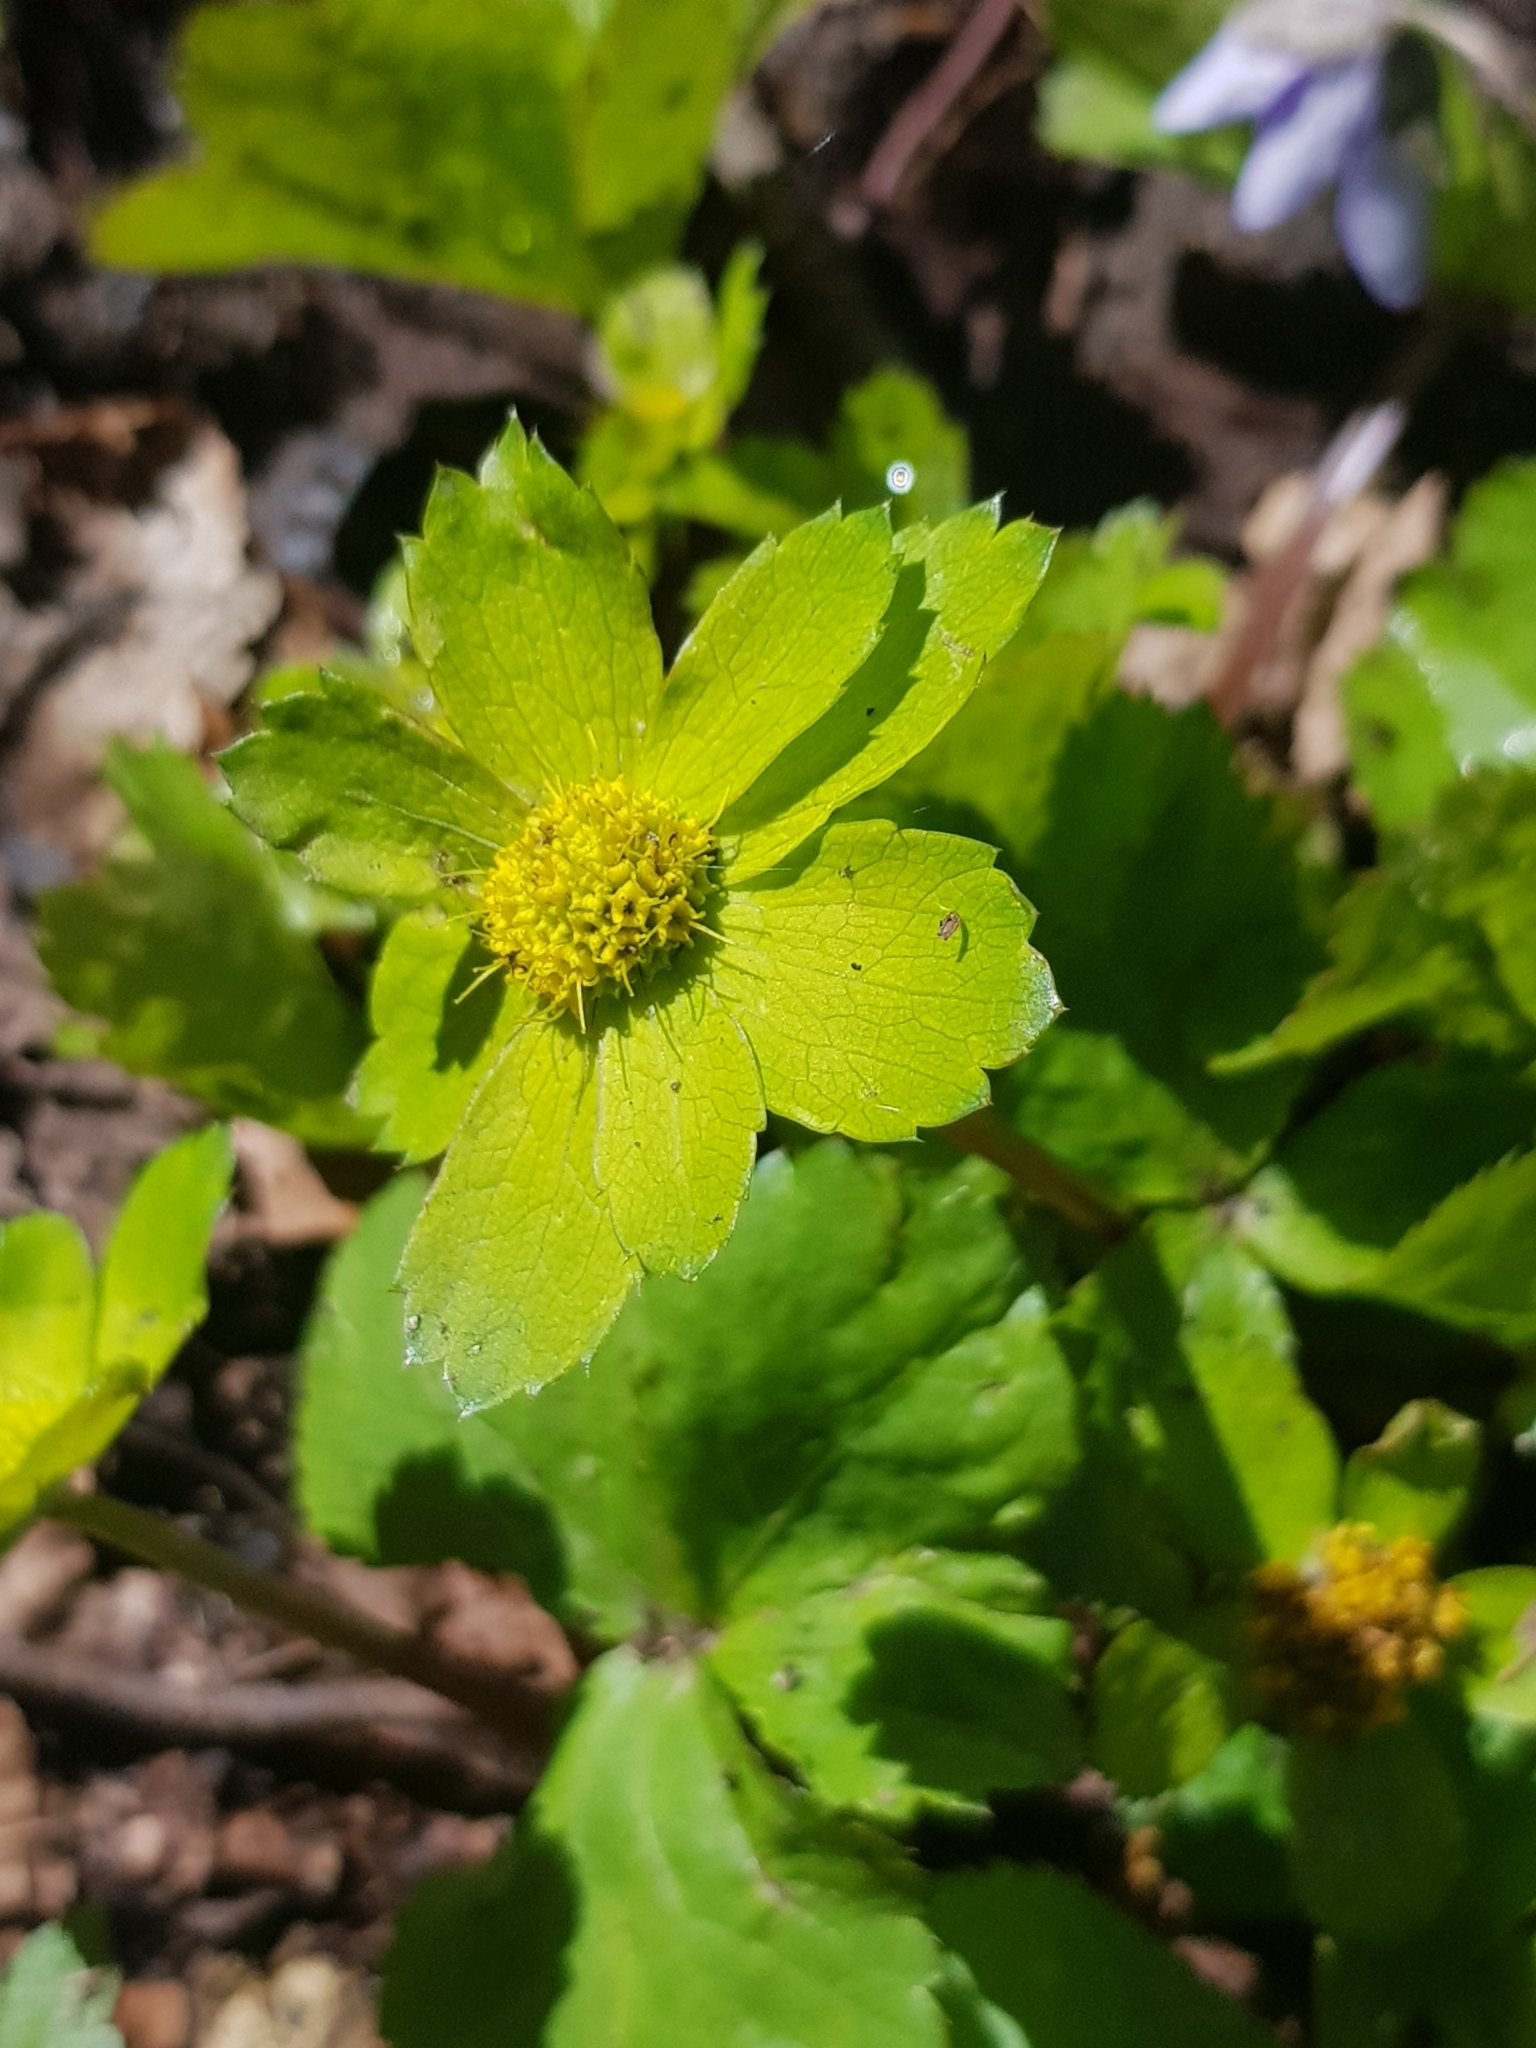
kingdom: Plantae
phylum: Tracheophyta
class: Magnoliopsida
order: Apiales
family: Apiaceae
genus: Sanicula
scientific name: Sanicula epipactis
